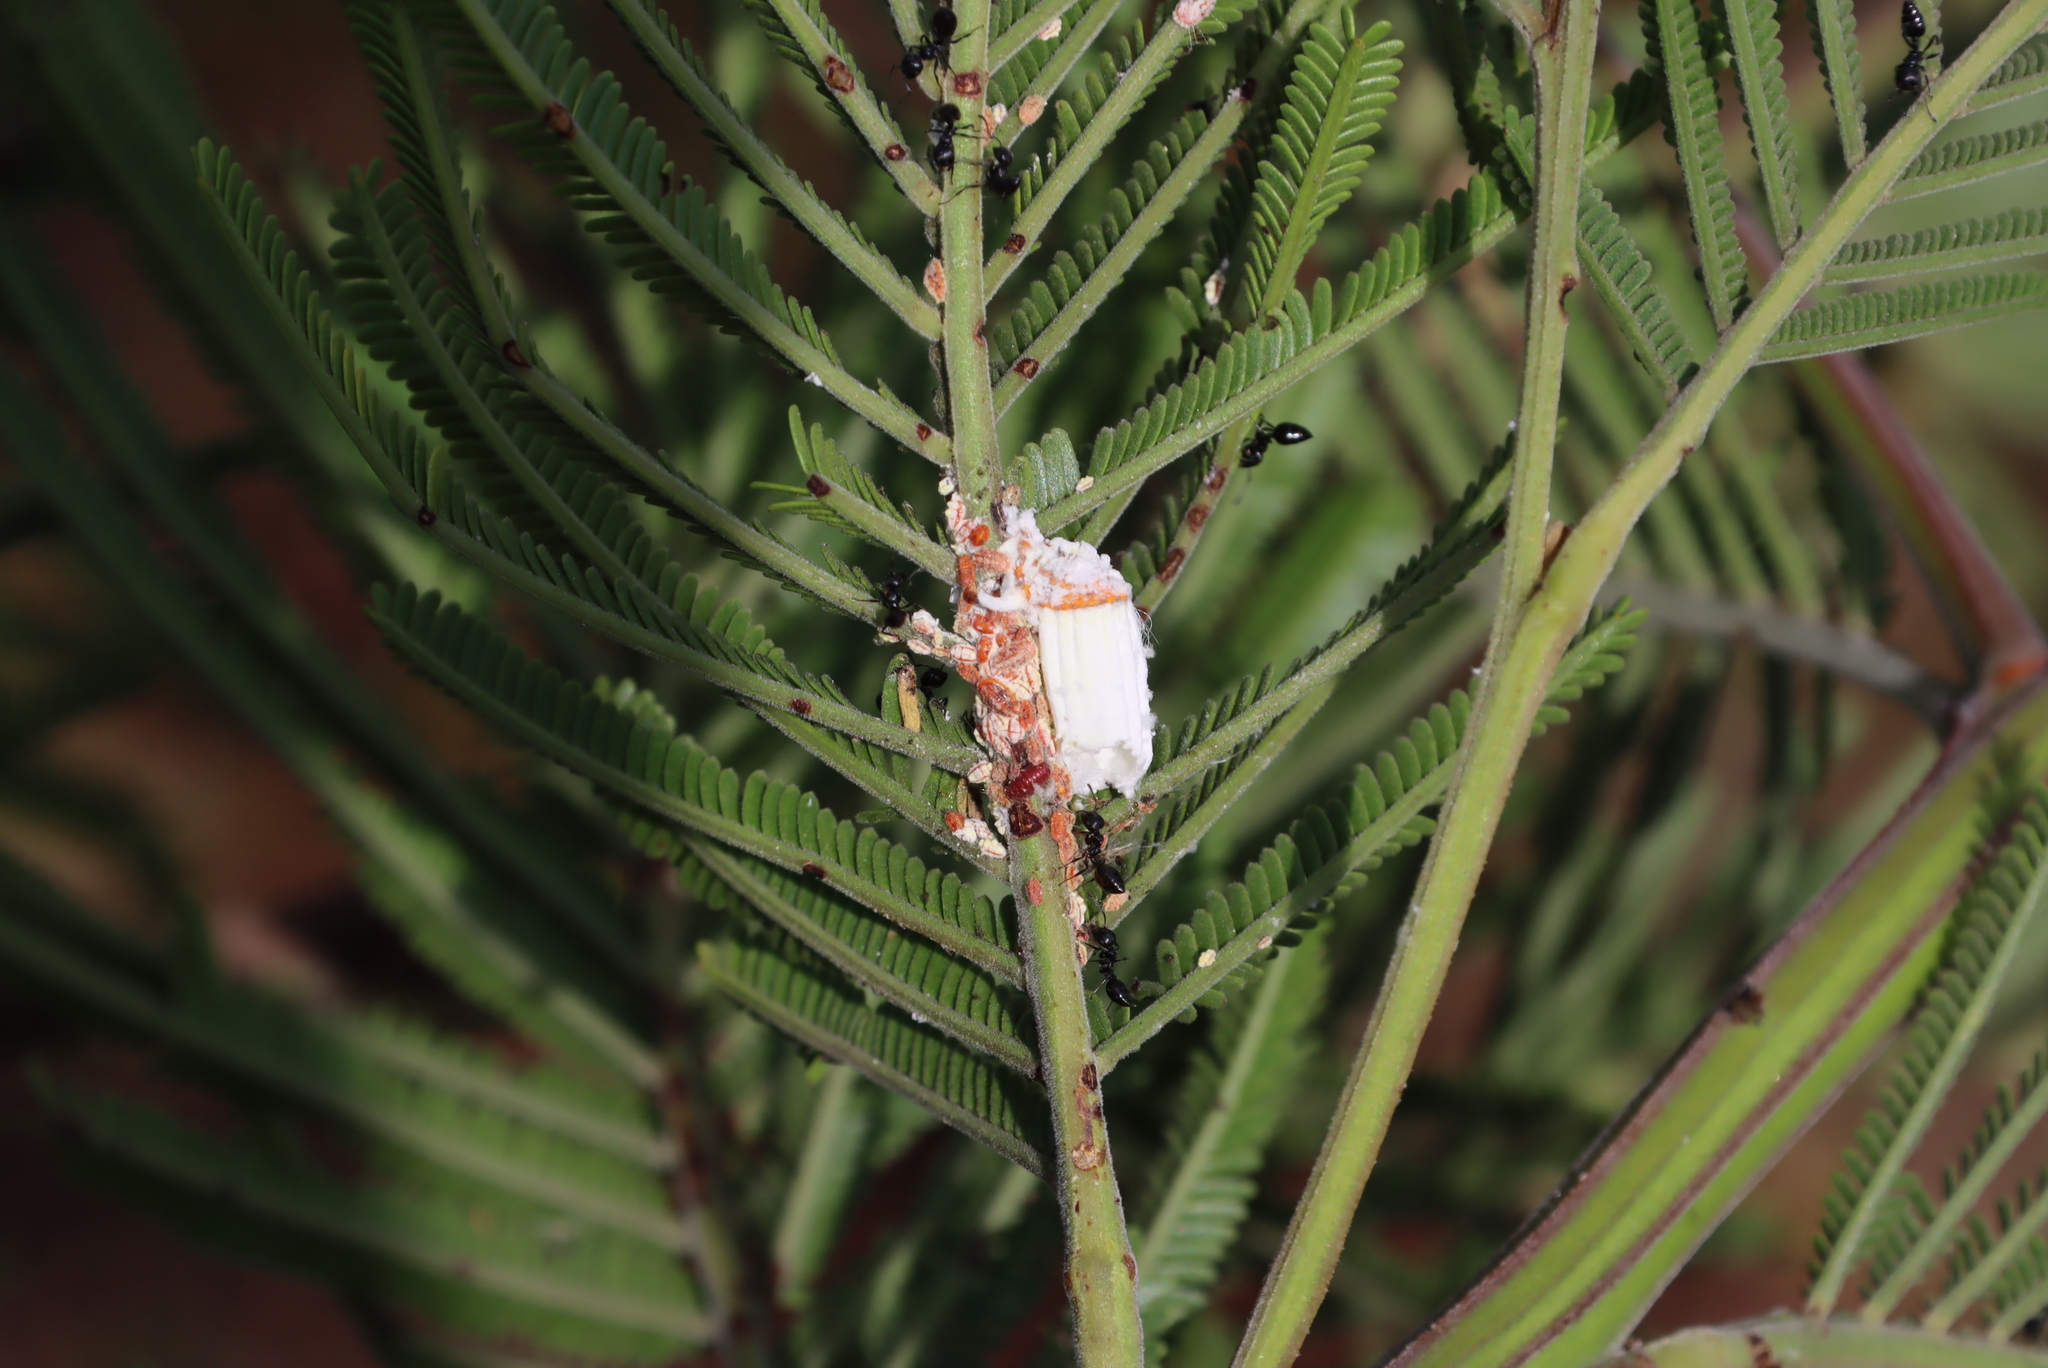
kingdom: Animalia
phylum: Arthropoda
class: Insecta
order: Hemiptera
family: Margarodidae
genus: Icerya
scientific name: Icerya purchasi
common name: Cottony cushion scale
